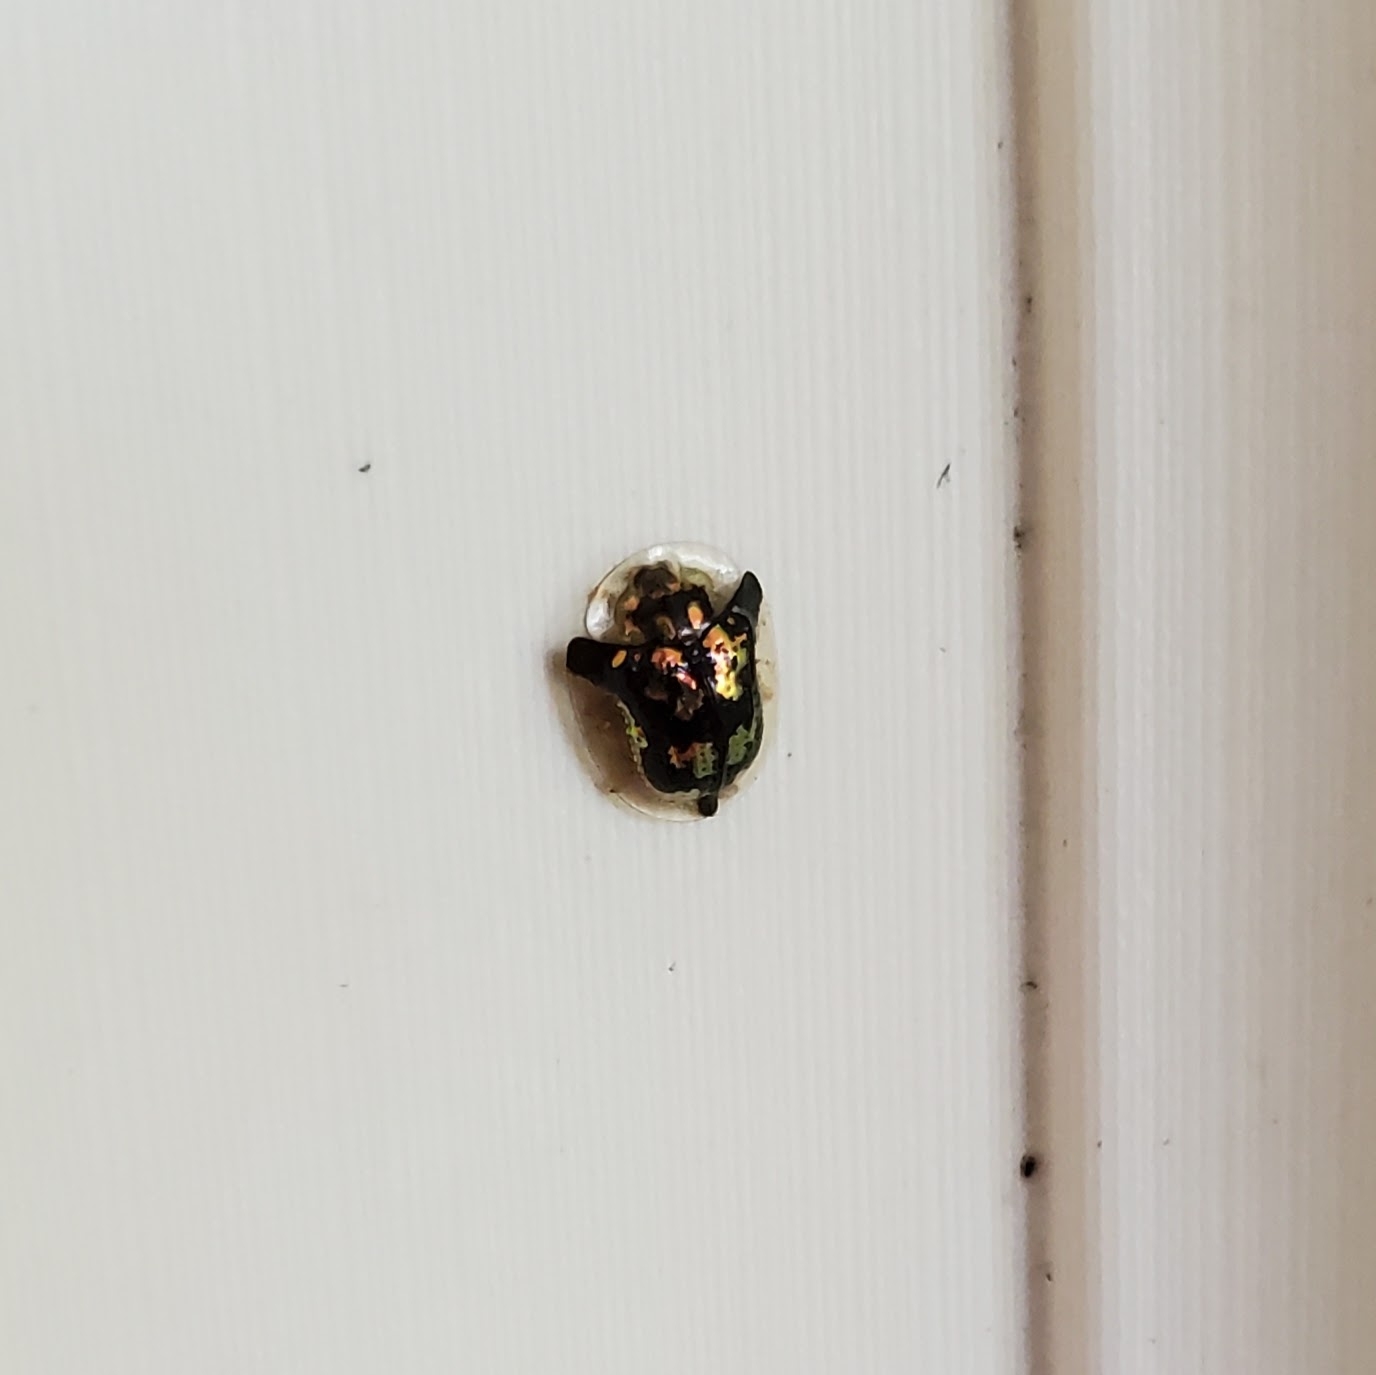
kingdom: Animalia
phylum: Arthropoda
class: Insecta
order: Coleoptera
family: Chrysomelidae
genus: Deloyala
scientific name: Deloyala guttata
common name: Mottled tortoise beetle
